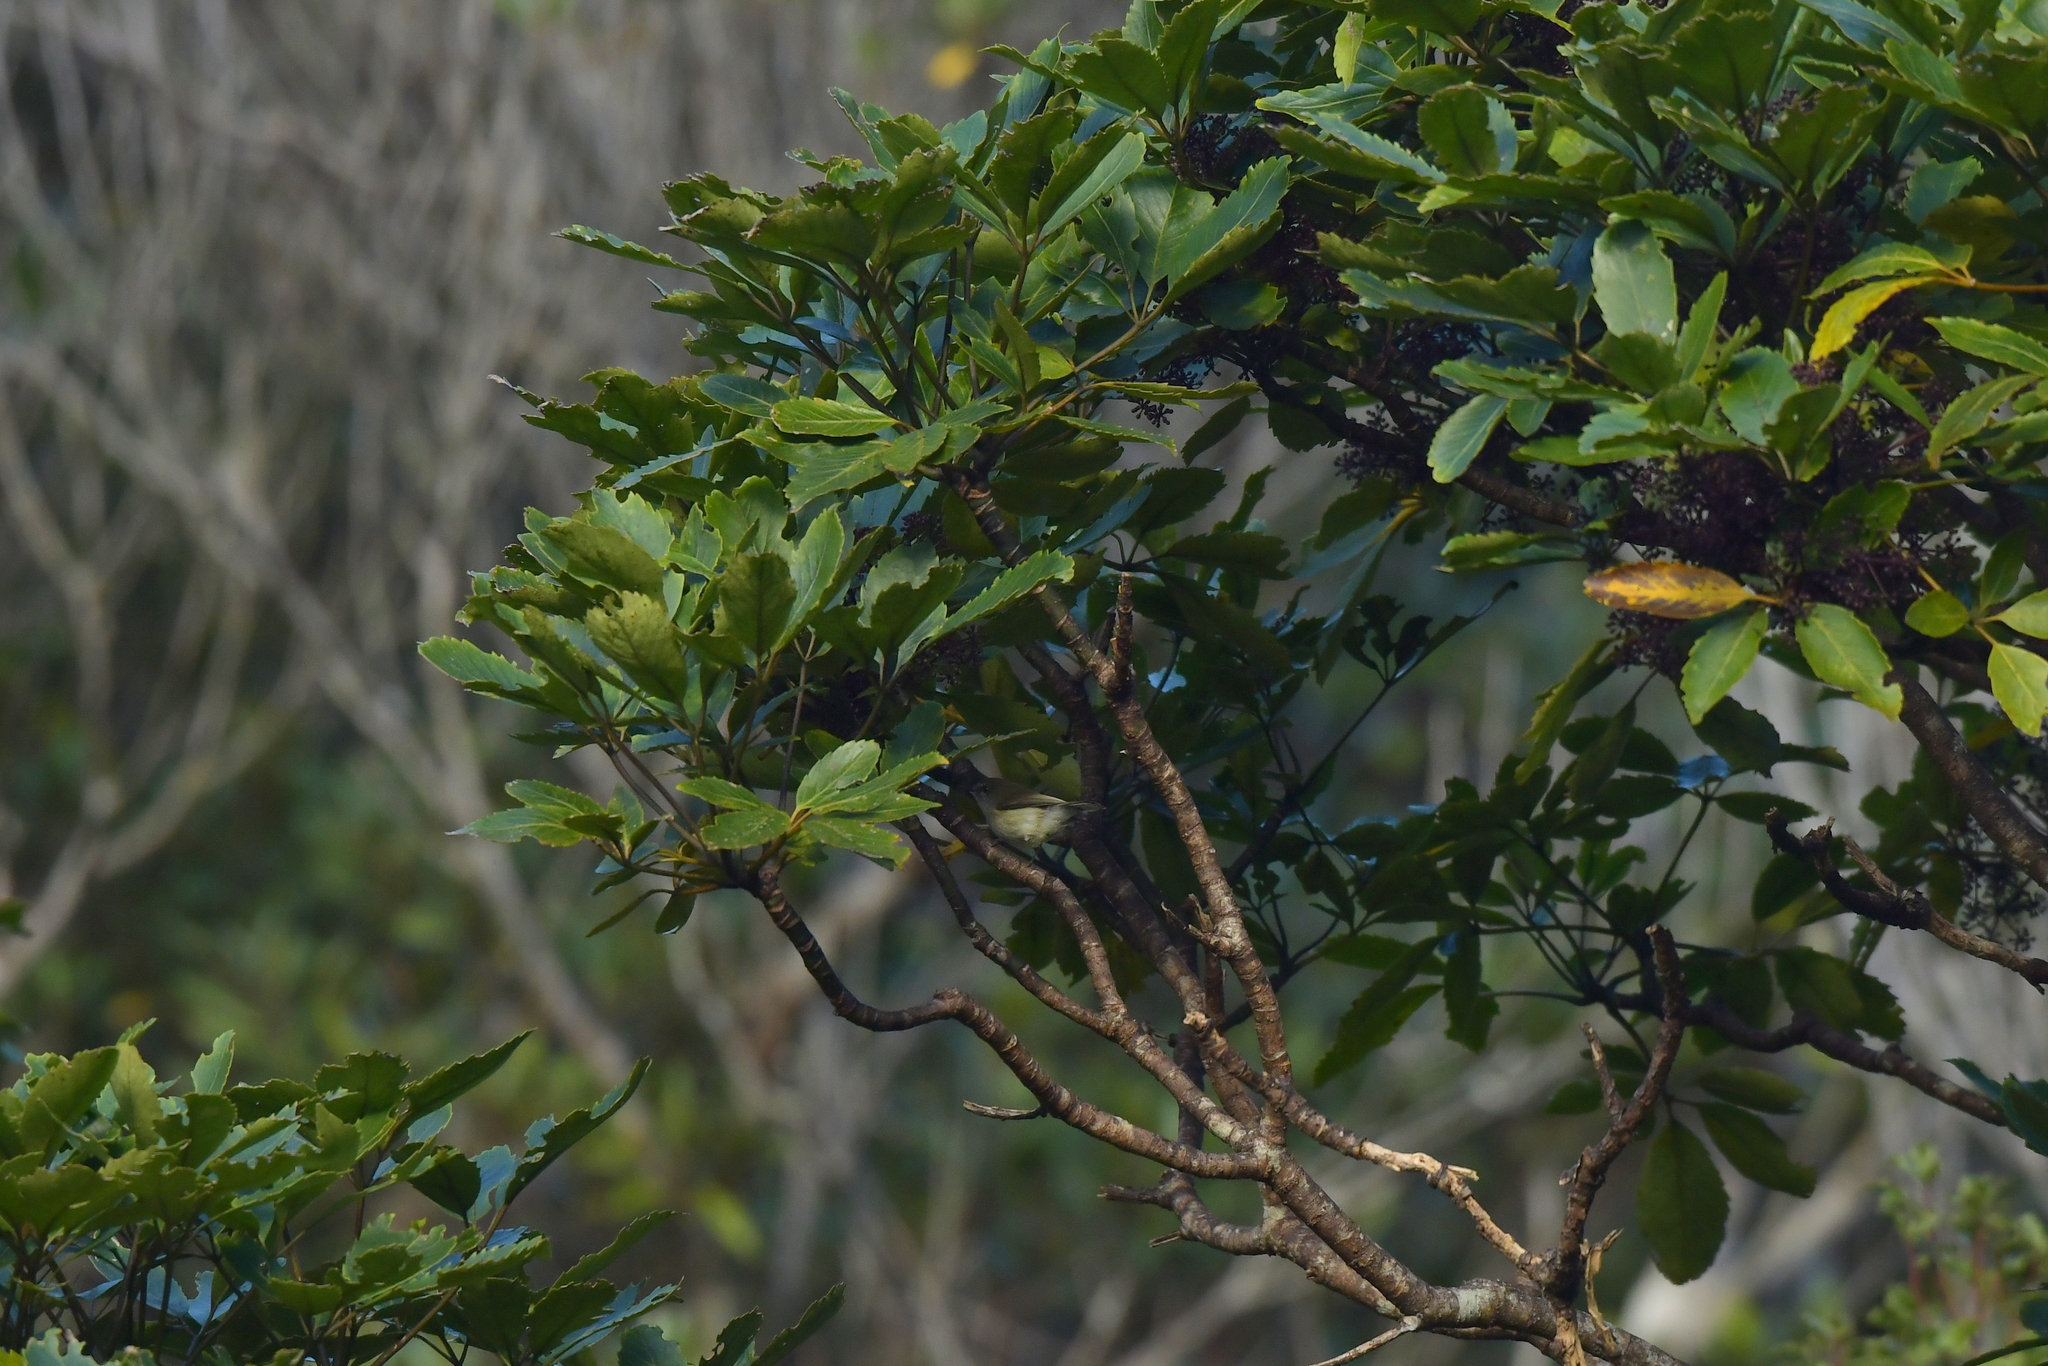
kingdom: Animalia
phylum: Chordata
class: Aves
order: Passeriformes
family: Acanthizidae
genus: Gerygone
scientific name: Gerygone igata
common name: Grey gerygone
